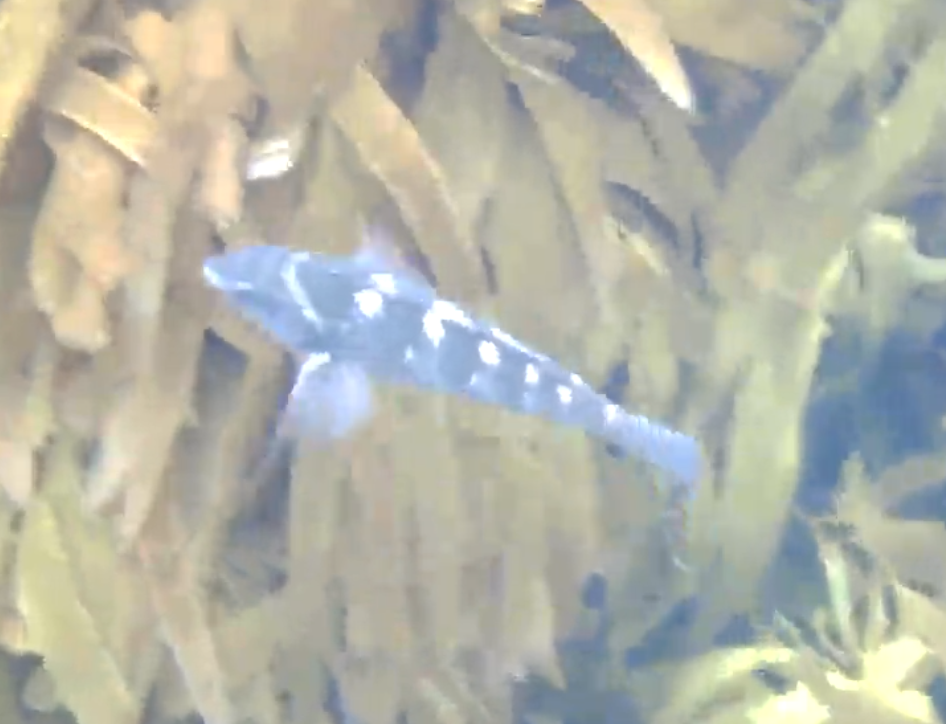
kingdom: Animalia
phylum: Chordata
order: Perciformes
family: Labridae
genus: Notolabrus
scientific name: Notolabrus fucicola
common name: Banded parrotfish
